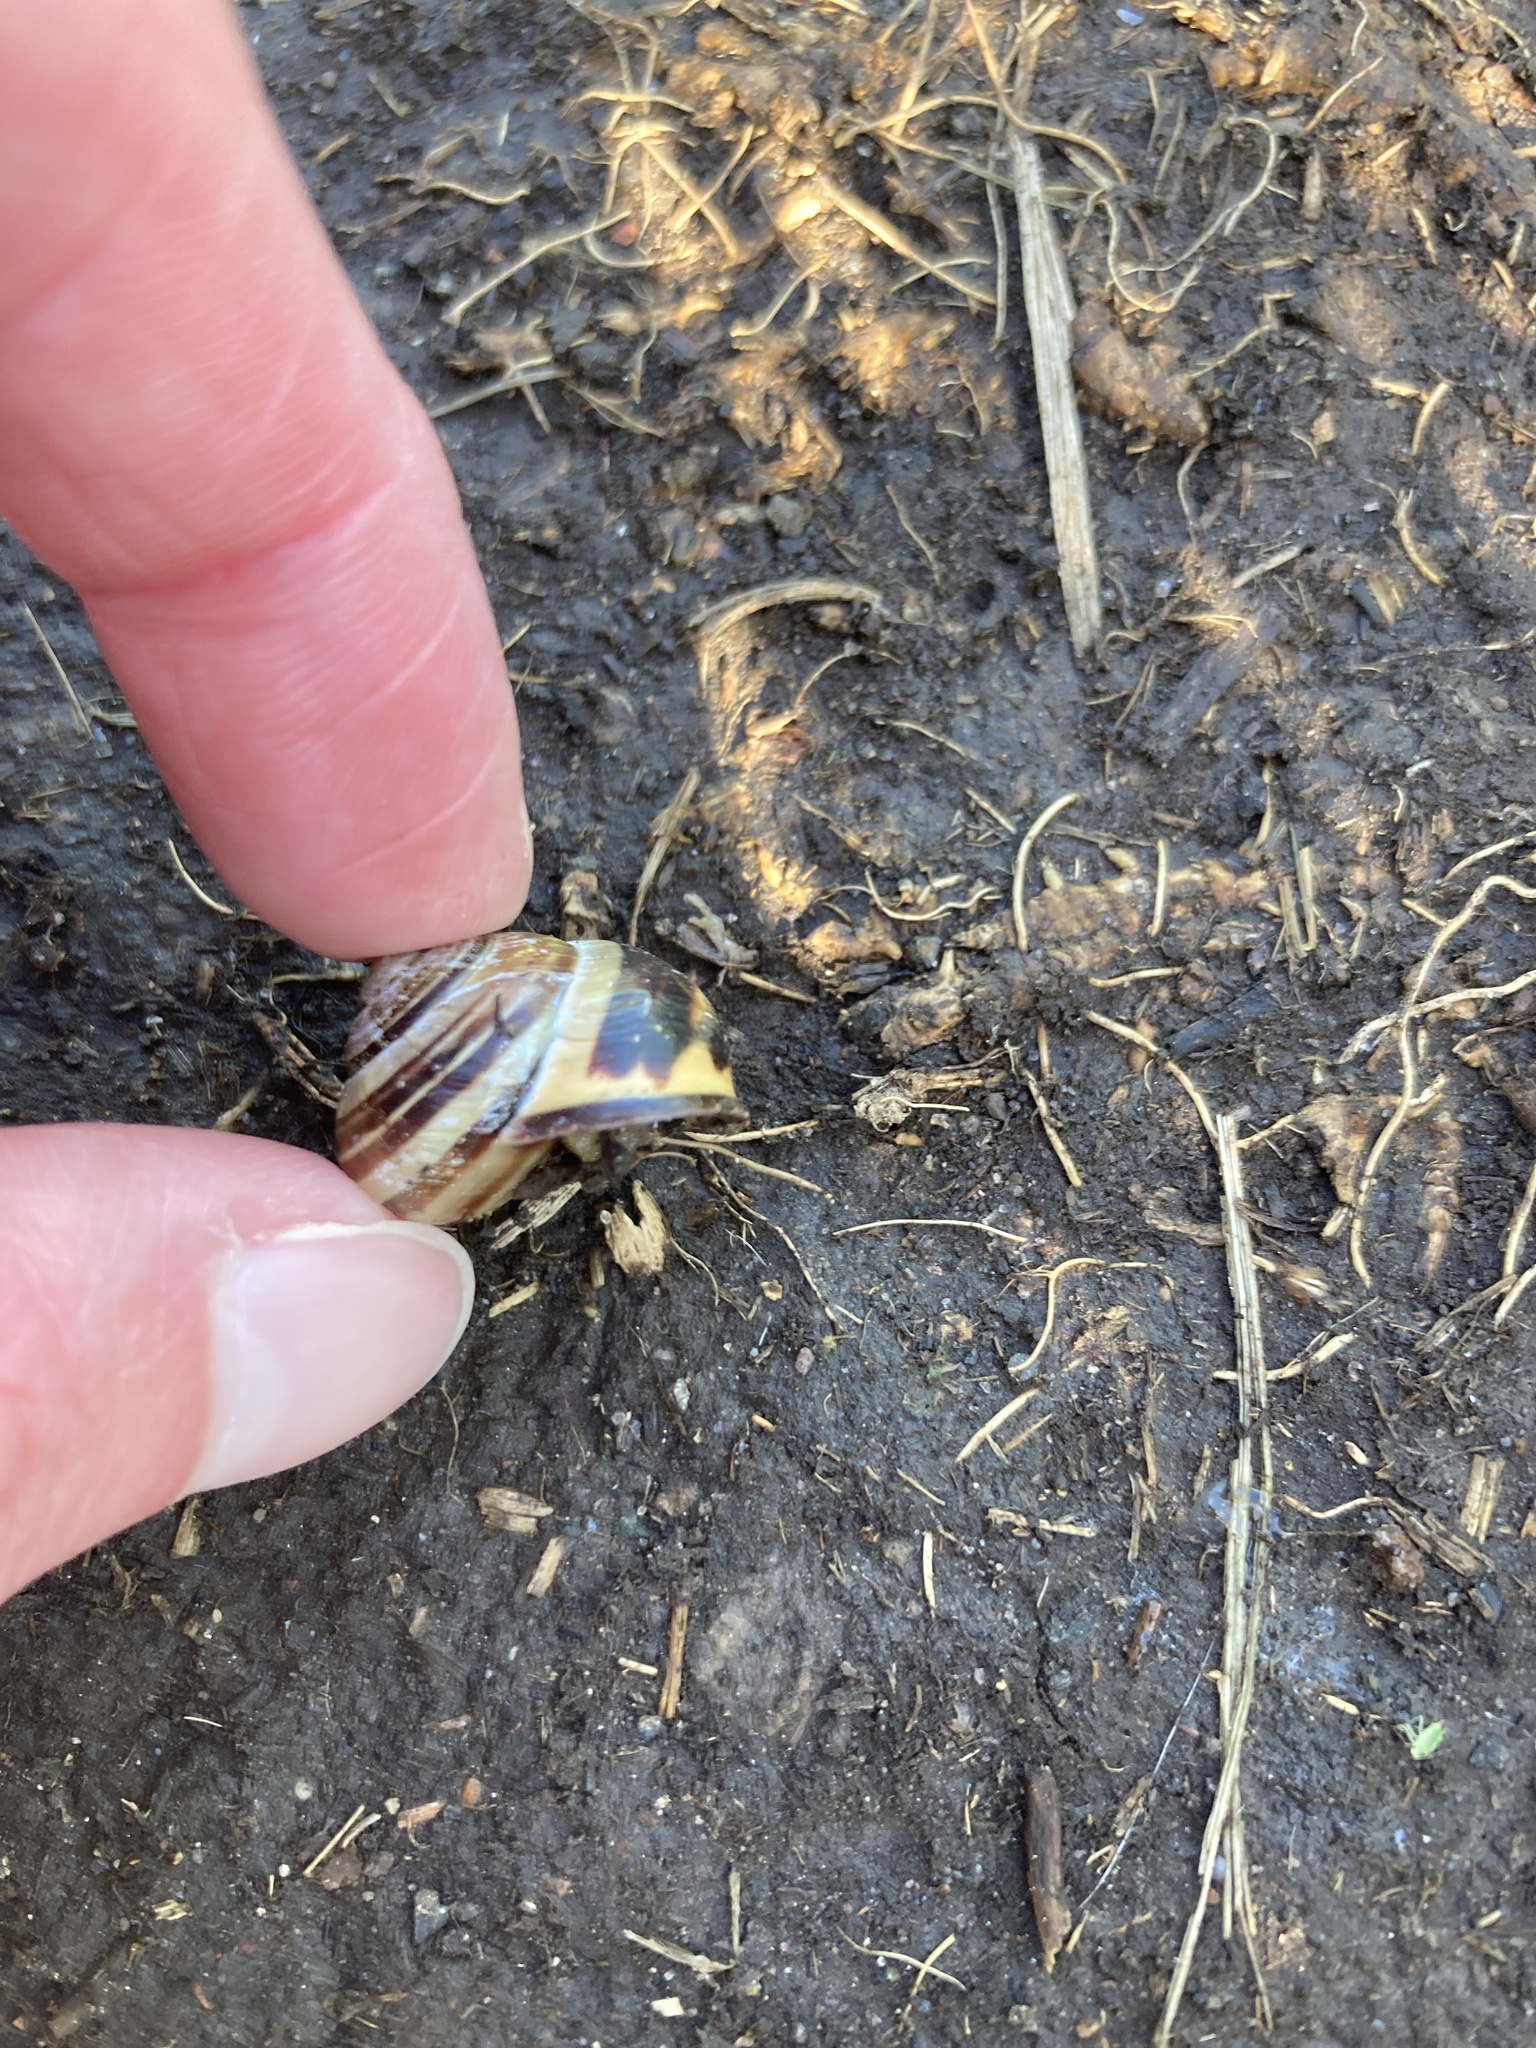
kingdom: Animalia
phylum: Mollusca
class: Gastropoda
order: Stylommatophora
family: Helicidae
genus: Cepaea
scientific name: Cepaea nemoralis
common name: Grovesnail
